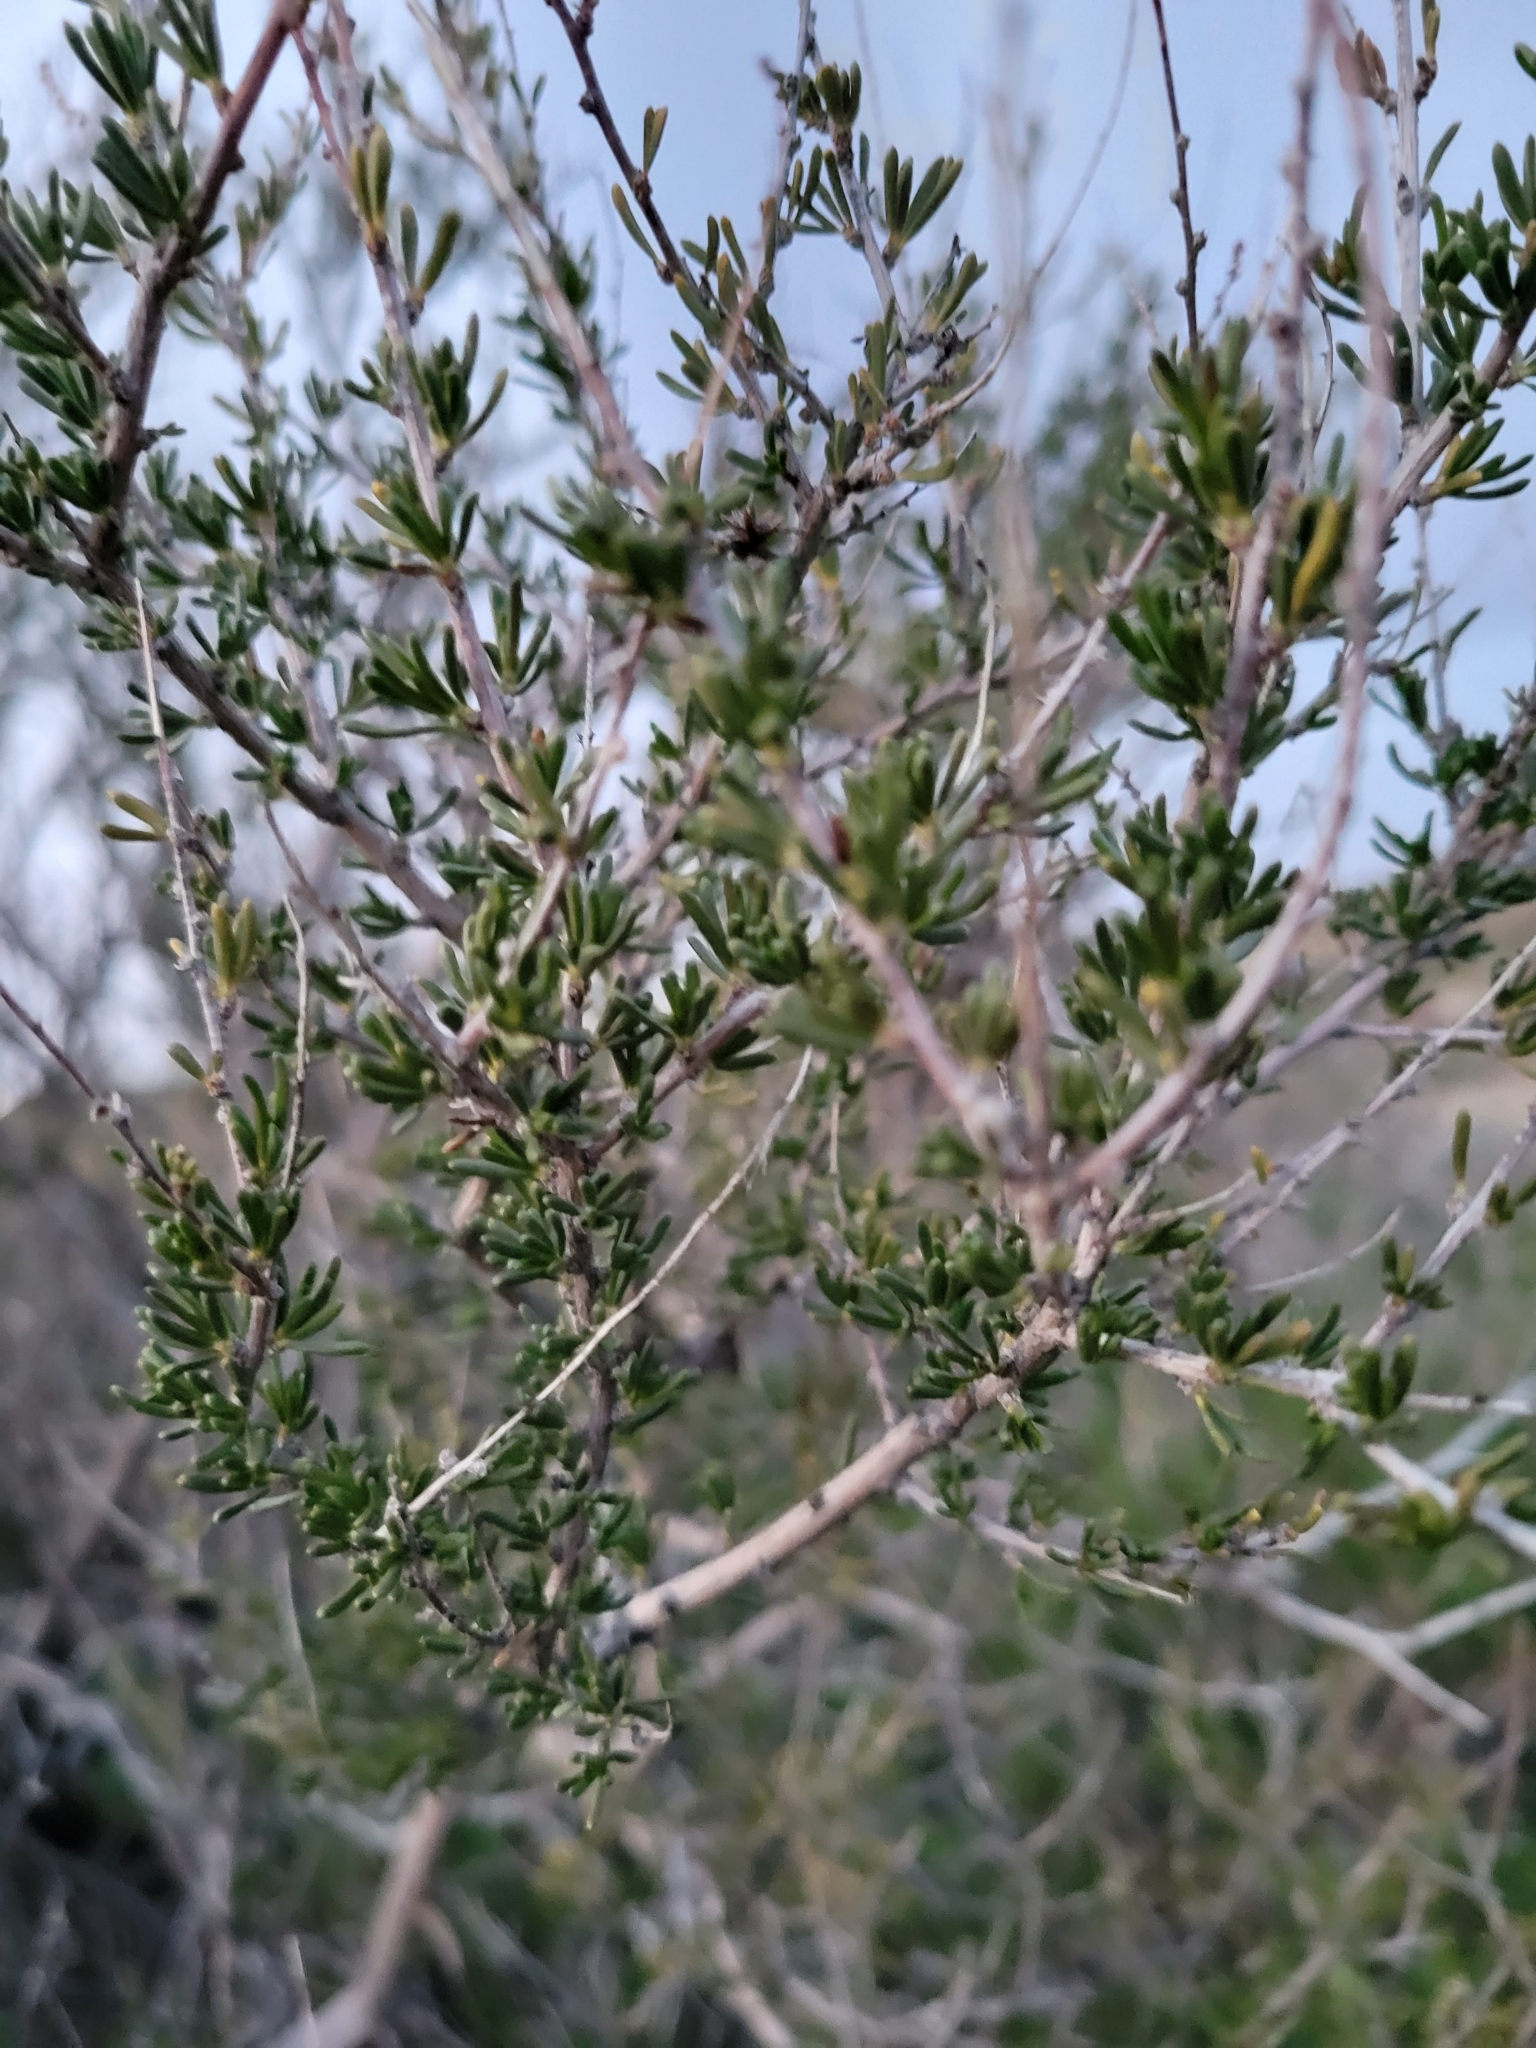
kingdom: Plantae
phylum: Tracheophyta
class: Magnoliopsida
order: Rosales
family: Rosaceae
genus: Adenostoma
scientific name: Adenostoma fasciculatum
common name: Chamise
